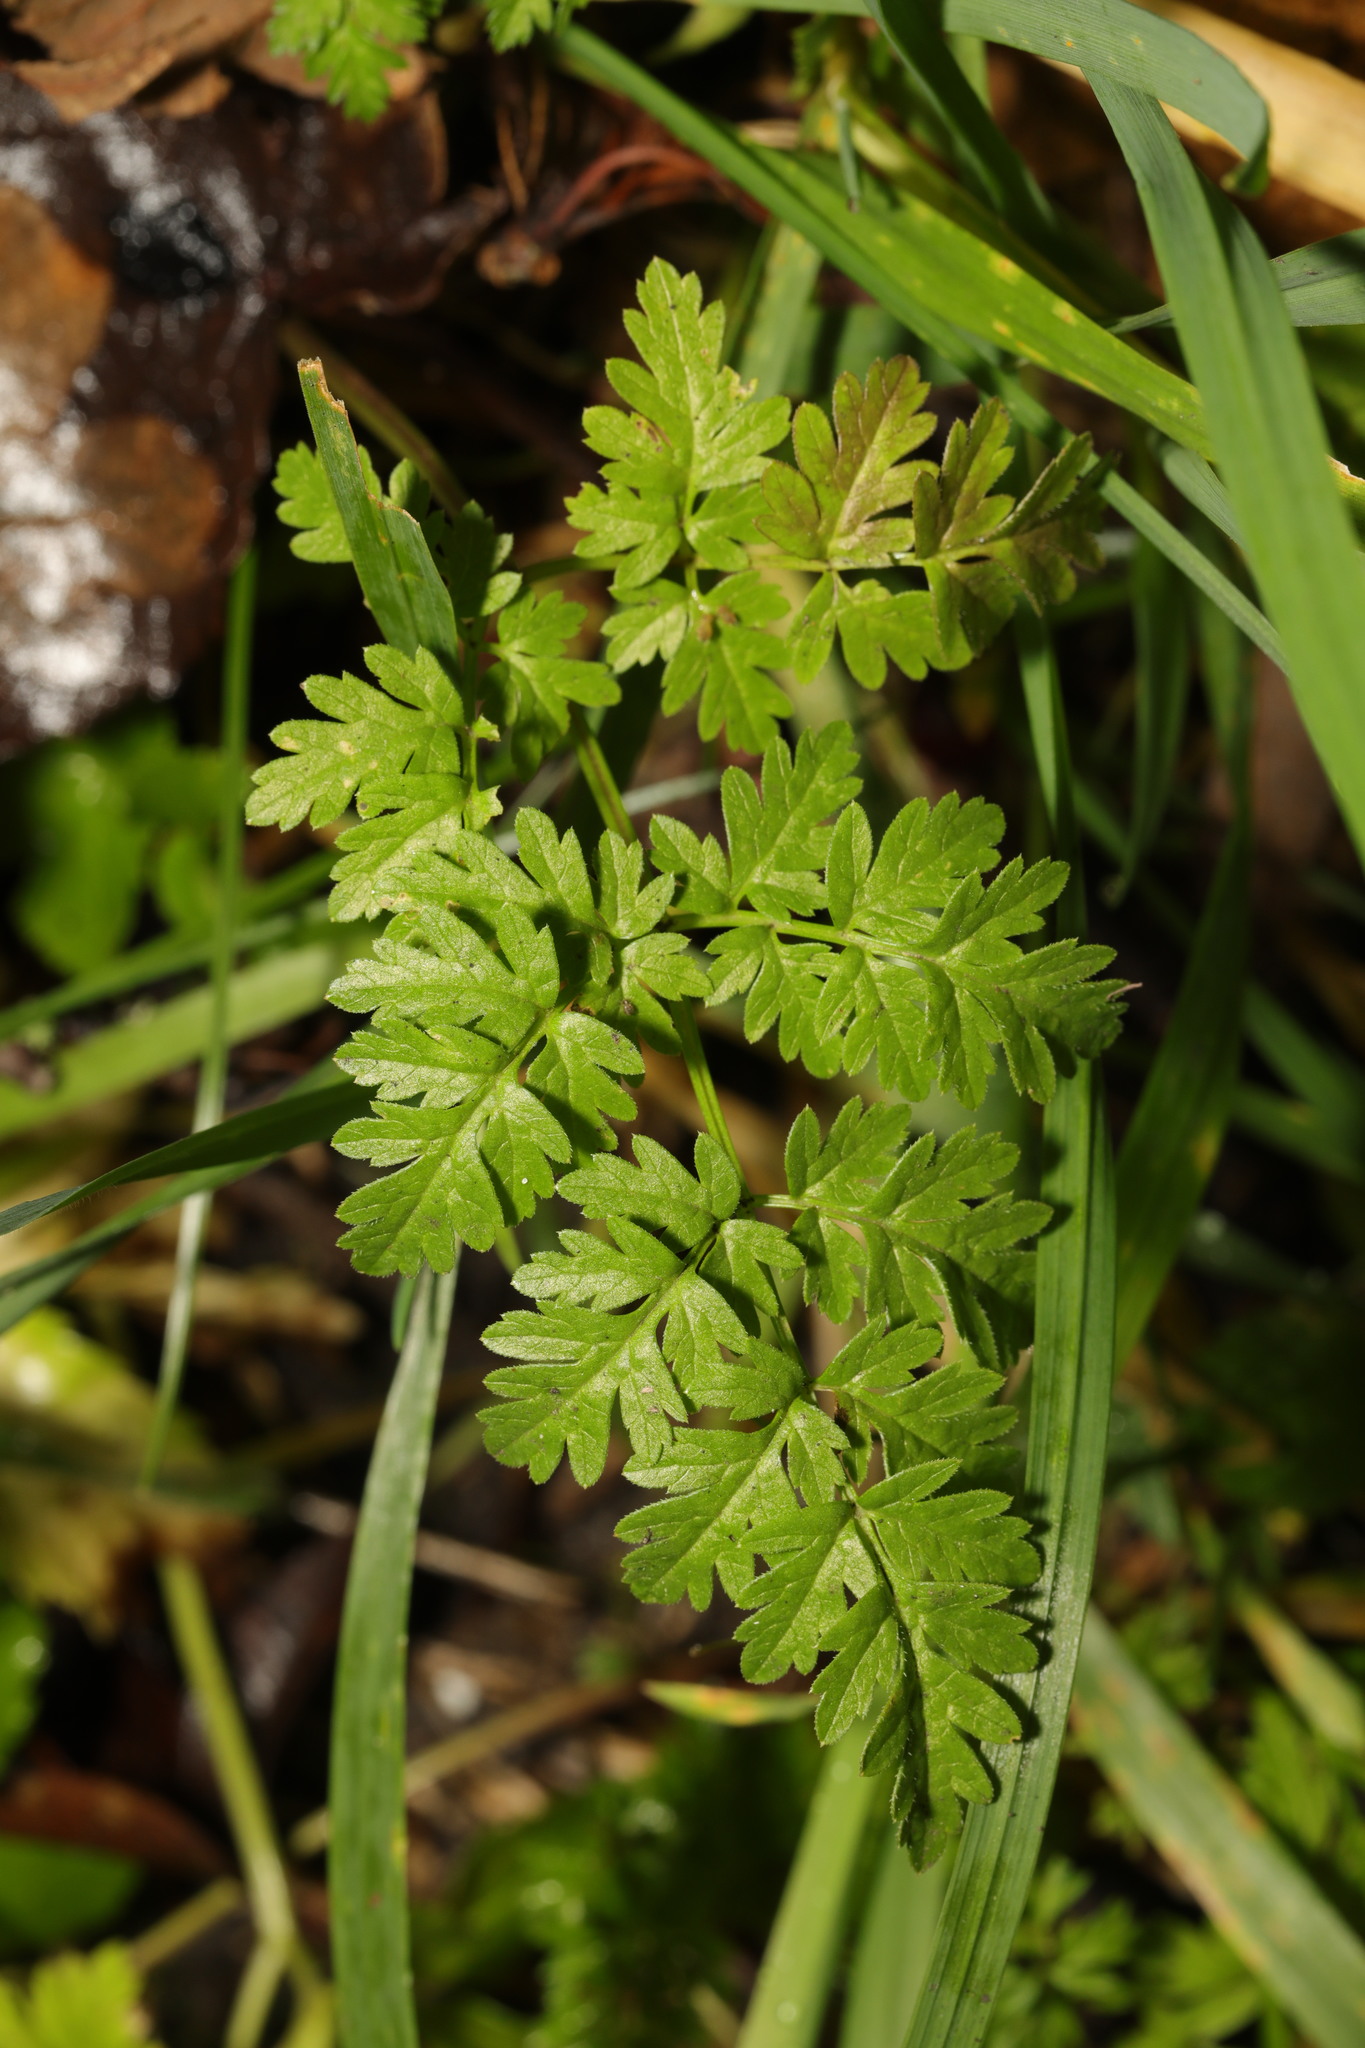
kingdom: Plantae
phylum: Tracheophyta
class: Magnoliopsida
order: Apiales
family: Apiaceae
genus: Anthriscus
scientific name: Anthriscus sylvestris
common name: Cow parsley
